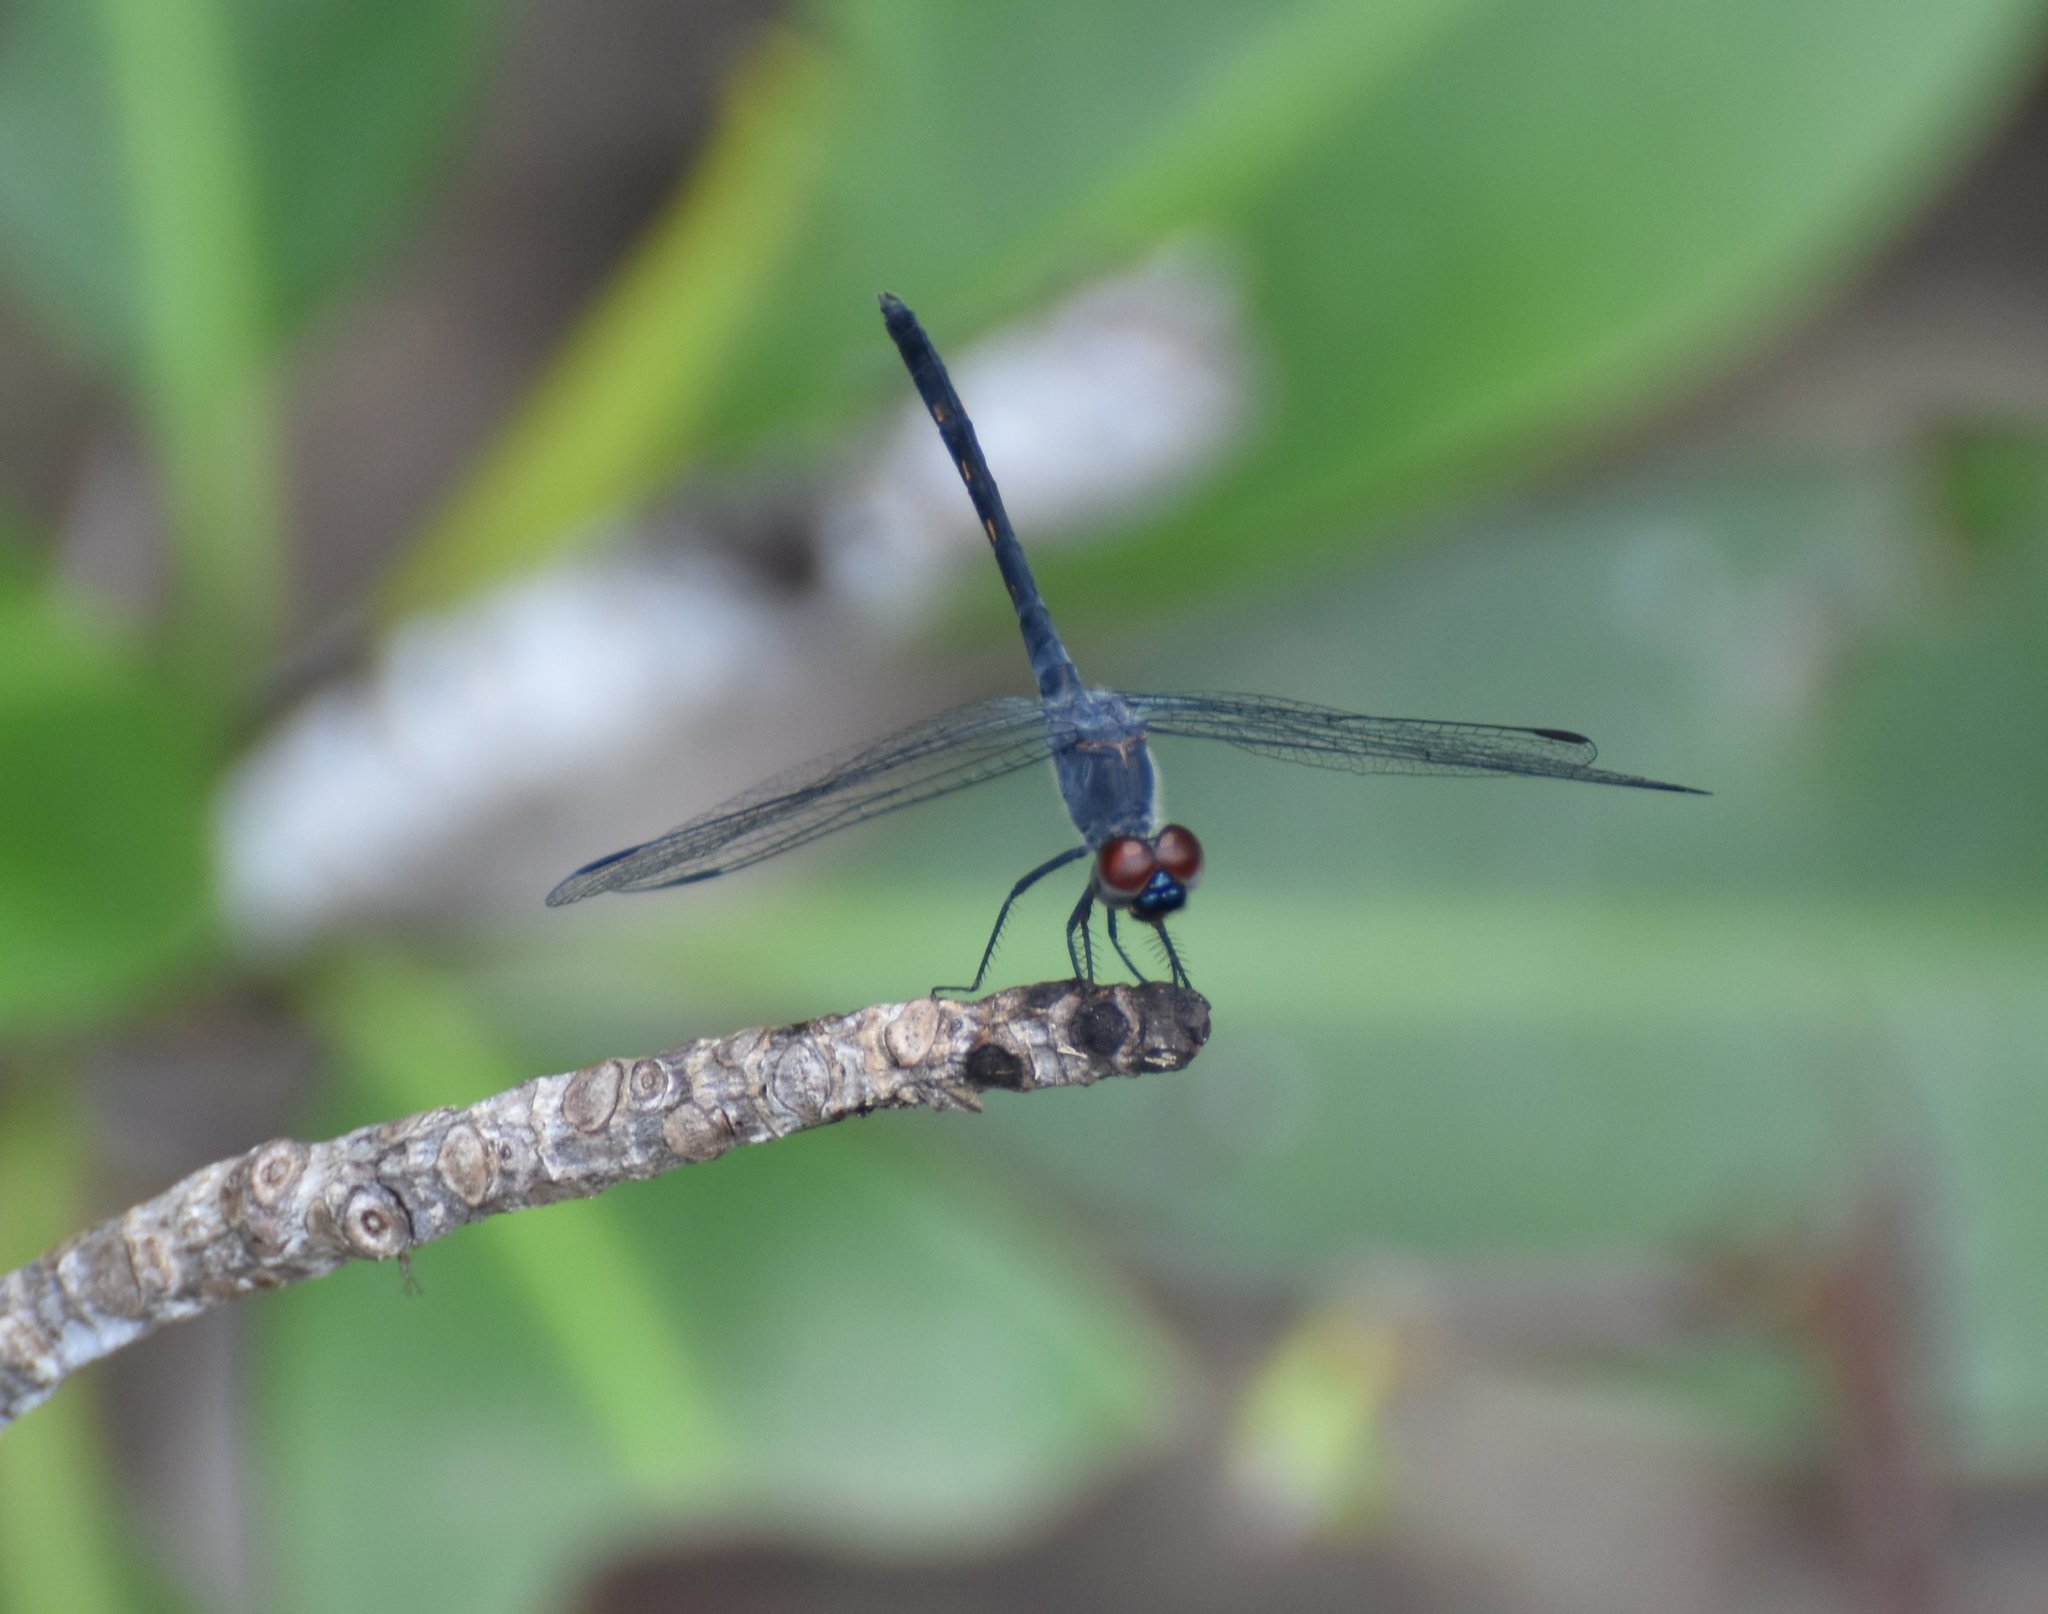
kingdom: Animalia
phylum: Arthropoda
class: Insecta
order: Odonata
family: Libellulidae
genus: Erythrodiplax
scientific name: Erythrodiplax berenice
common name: Seaside dragonlet
